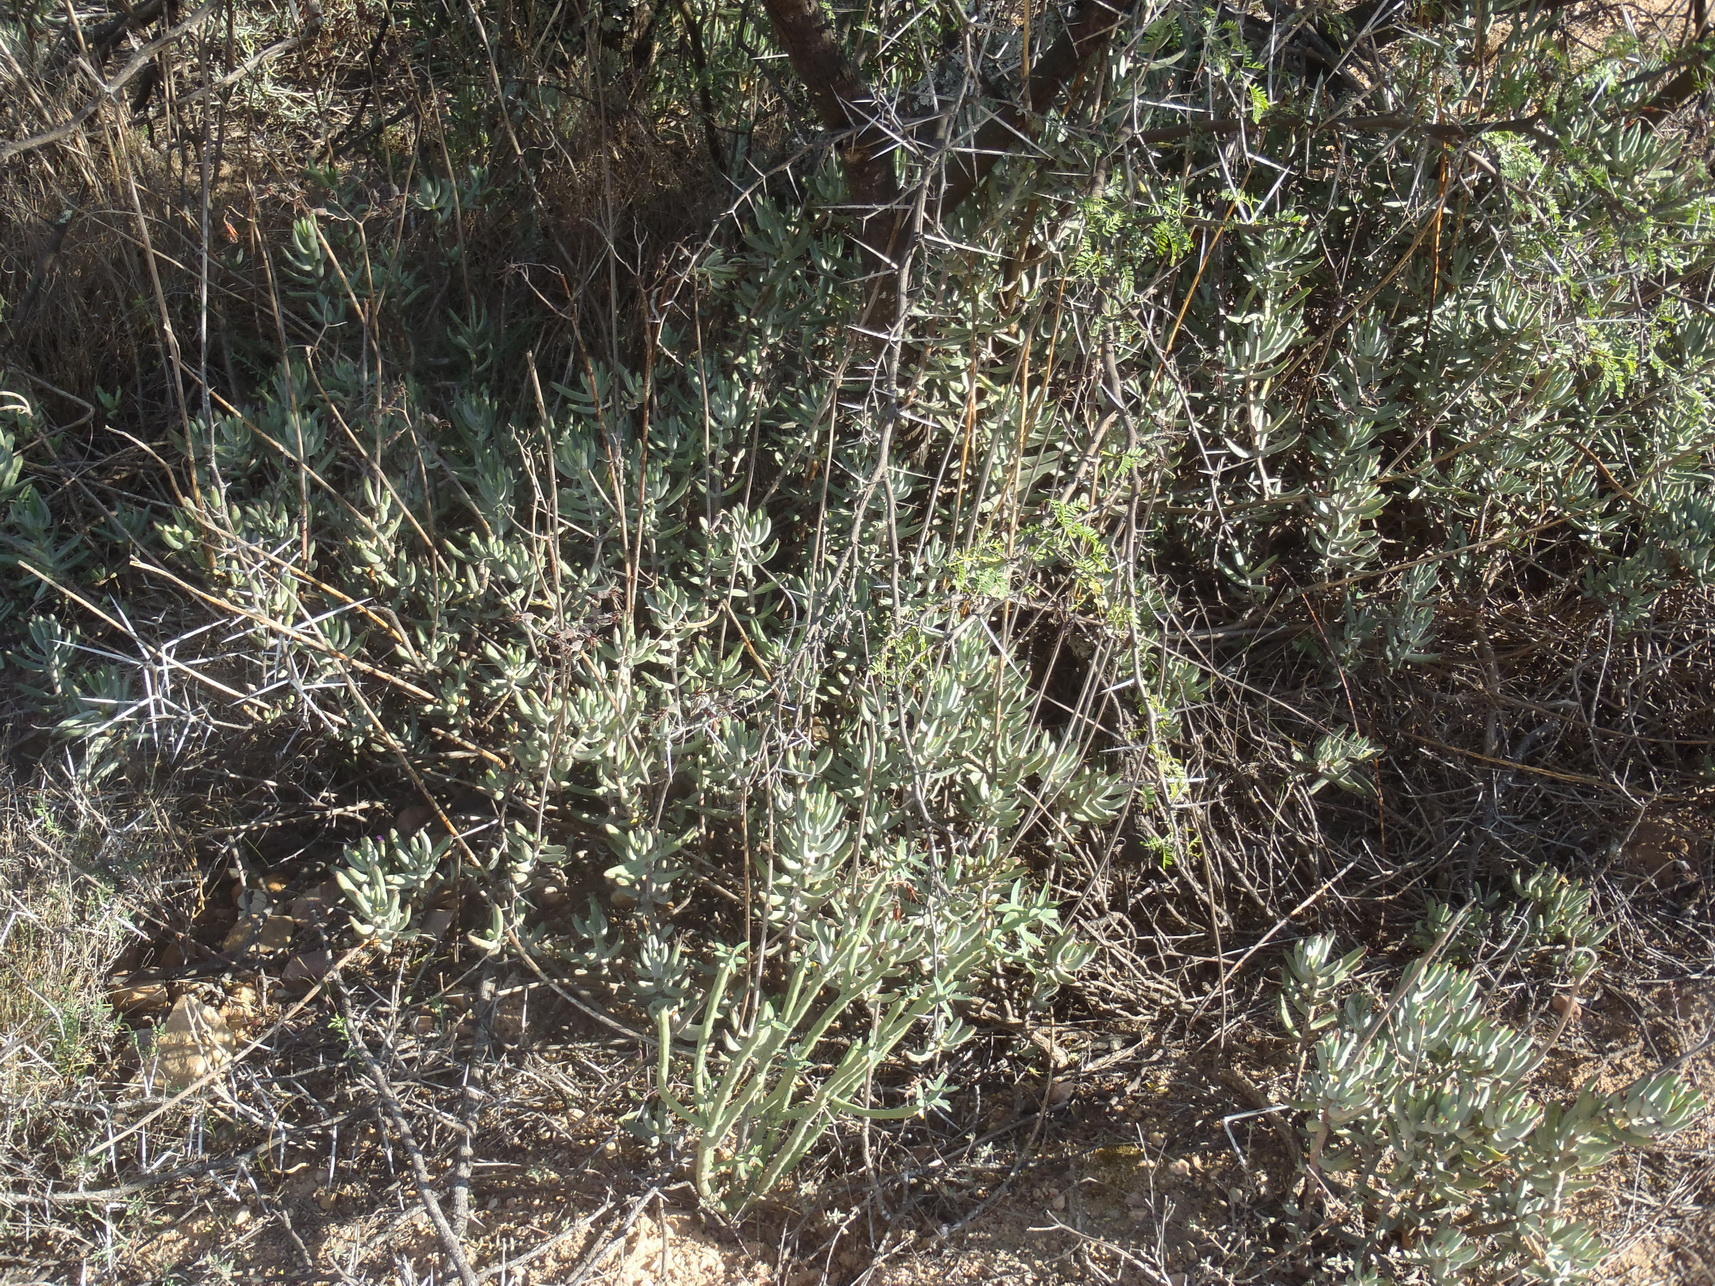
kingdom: Plantae
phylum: Tracheophyta
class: Magnoliopsida
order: Saxifragales
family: Crassulaceae
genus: Cotyledon
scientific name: Cotyledon orbiculata
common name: Pig's ear
